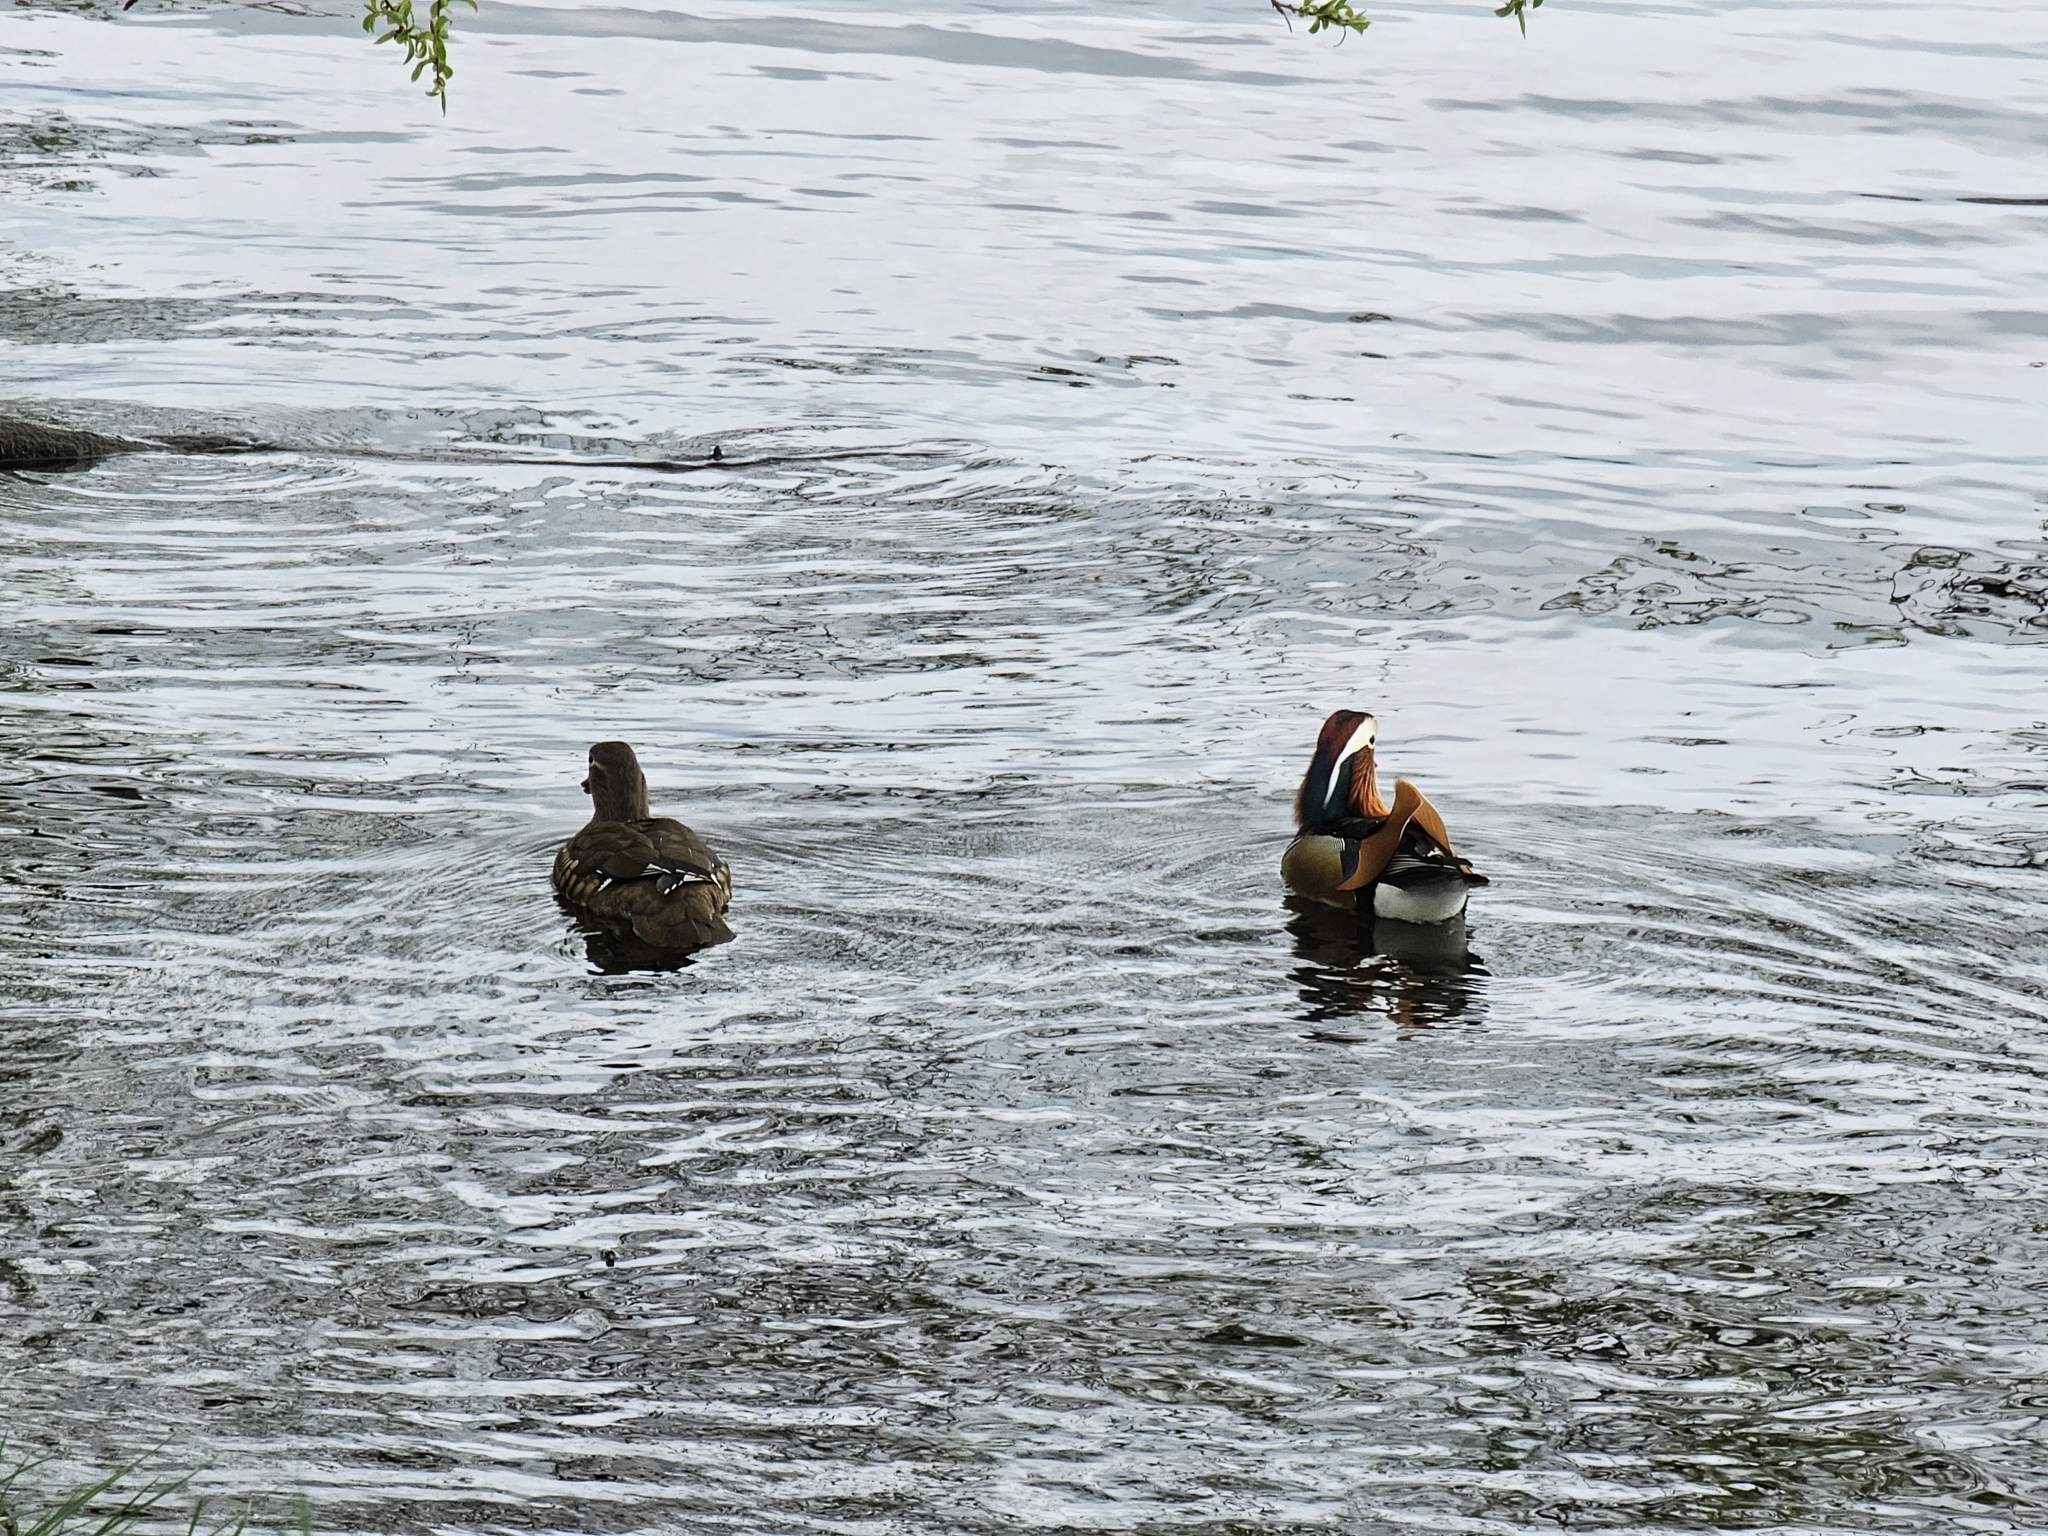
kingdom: Animalia
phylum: Chordata
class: Aves
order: Anseriformes
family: Anatidae
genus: Aix
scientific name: Aix galericulata
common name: Mandarin duck
